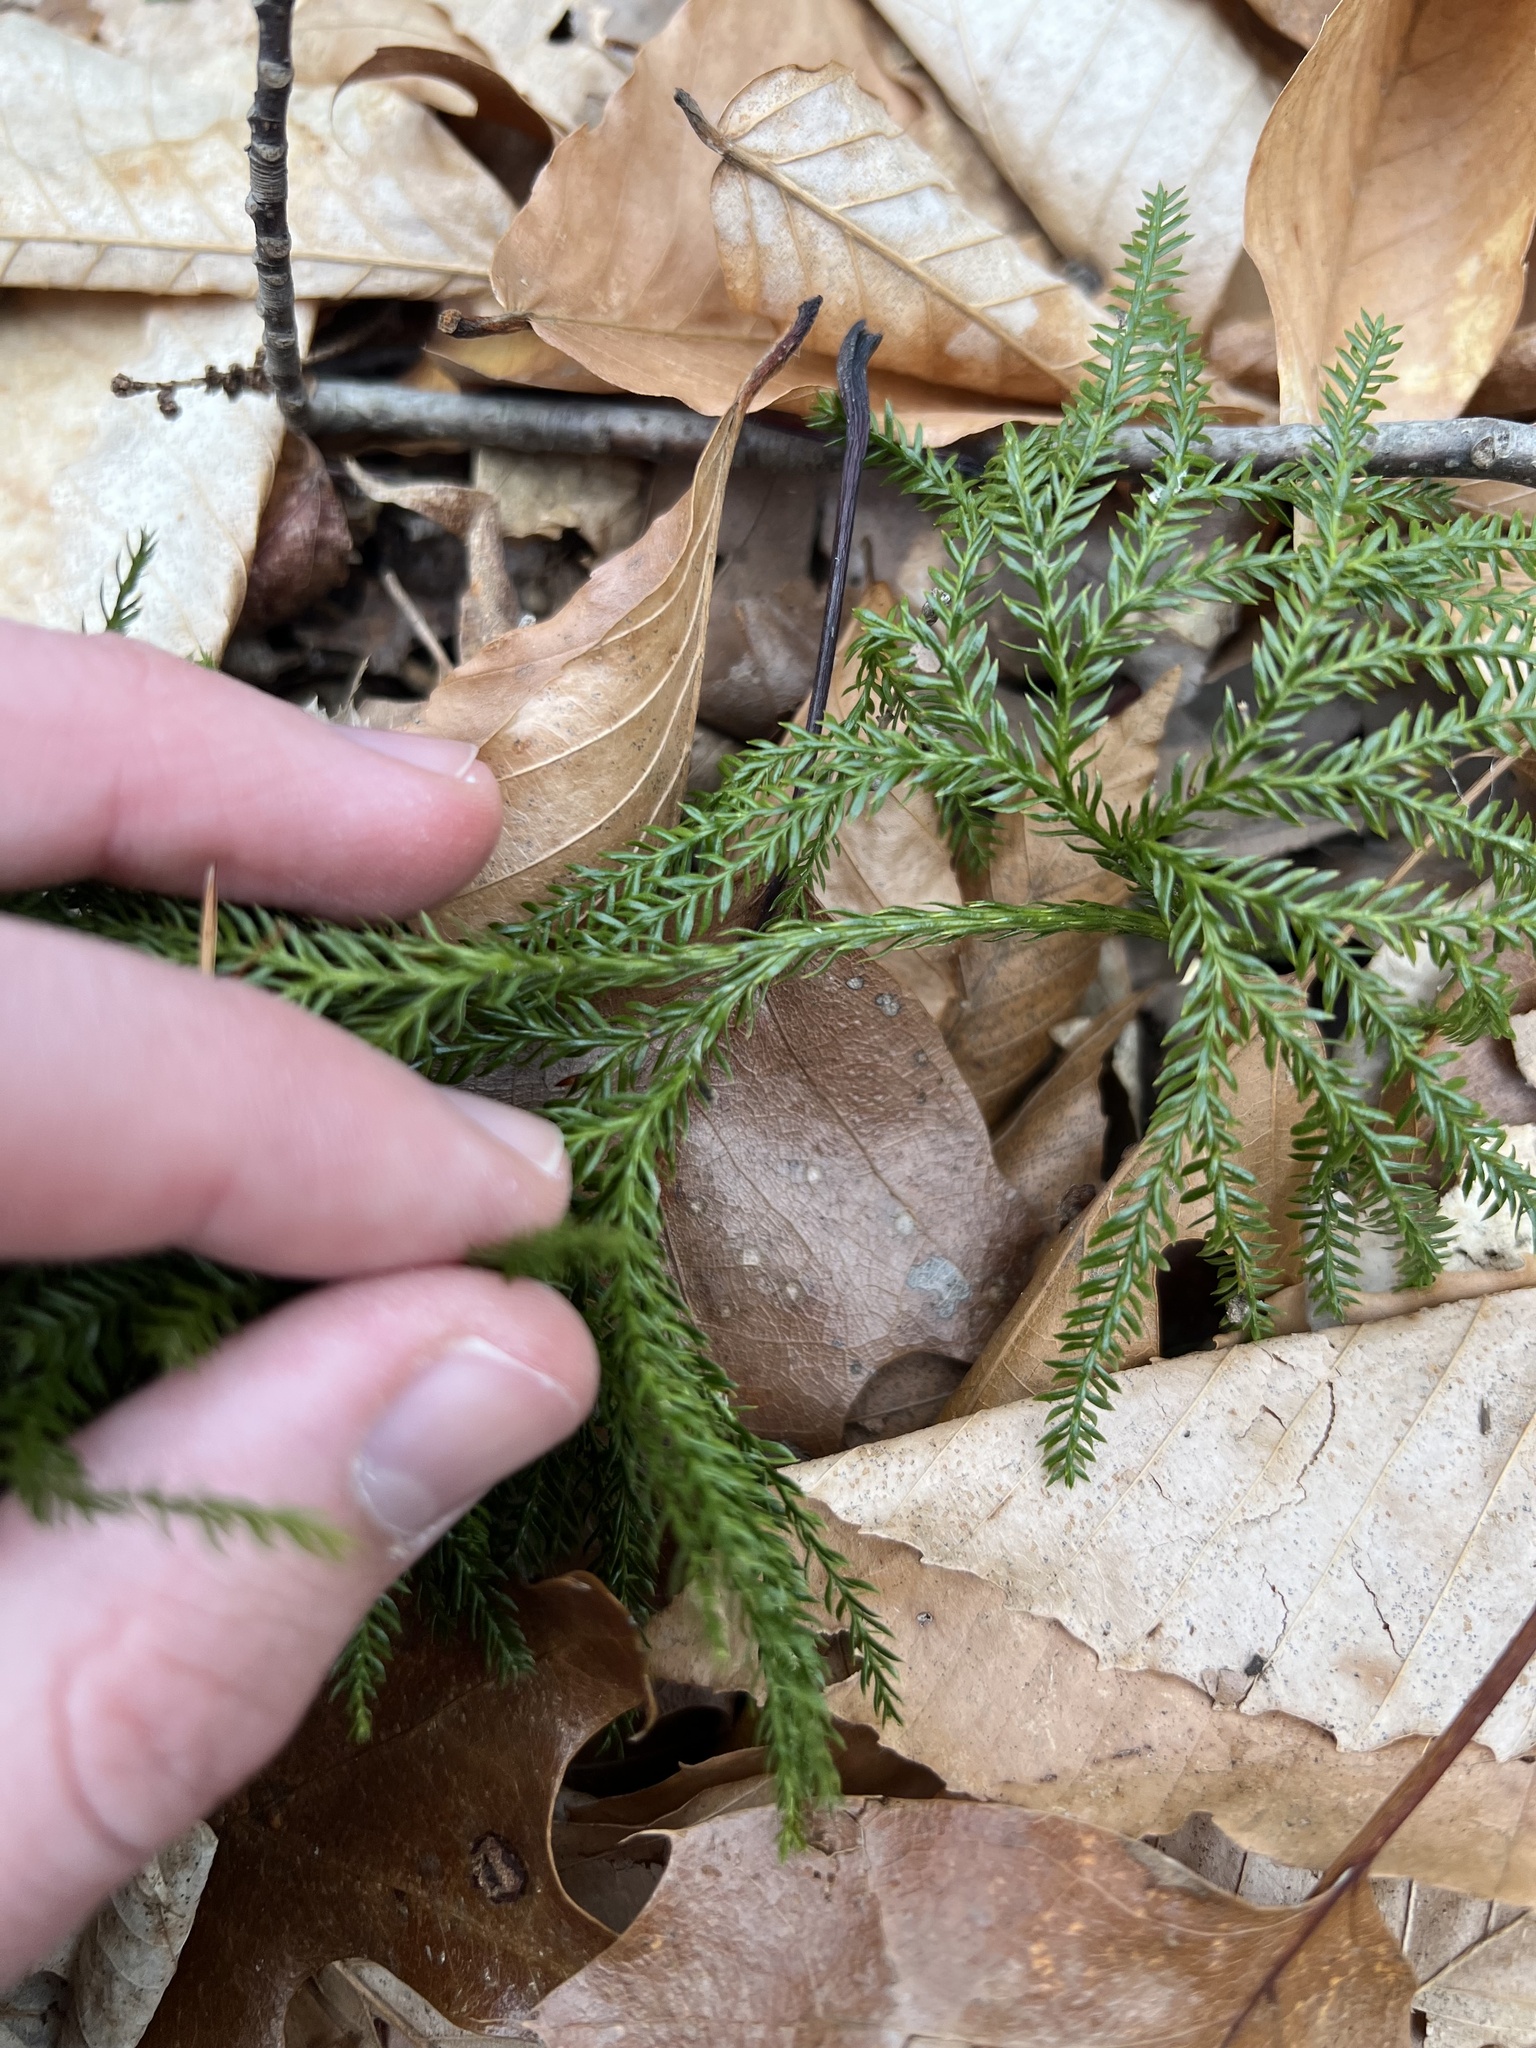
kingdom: Plantae
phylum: Tracheophyta
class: Lycopodiopsida
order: Lycopodiales
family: Lycopodiaceae
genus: Dendrolycopodium
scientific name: Dendrolycopodium obscurum
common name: Common ground-pine
